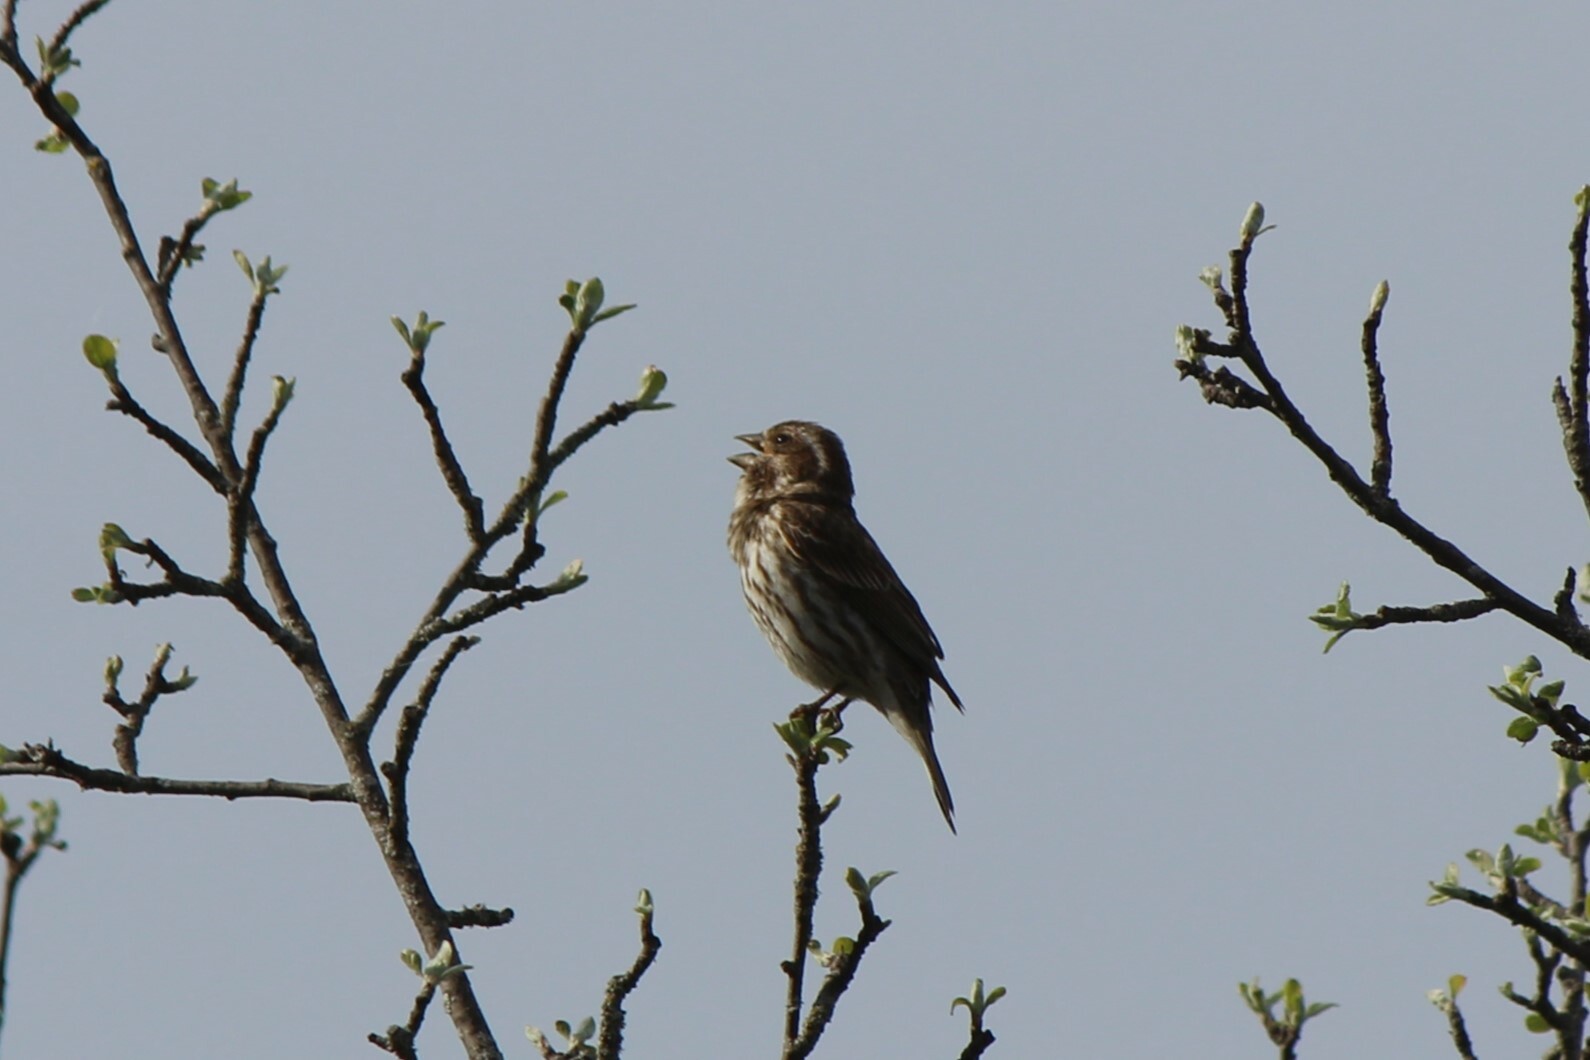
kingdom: Animalia
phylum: Chordata
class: Aves
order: Passeriformes
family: Fringillidae
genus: Haemorhous
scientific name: Haemorhous purpureus
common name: Purple finch
